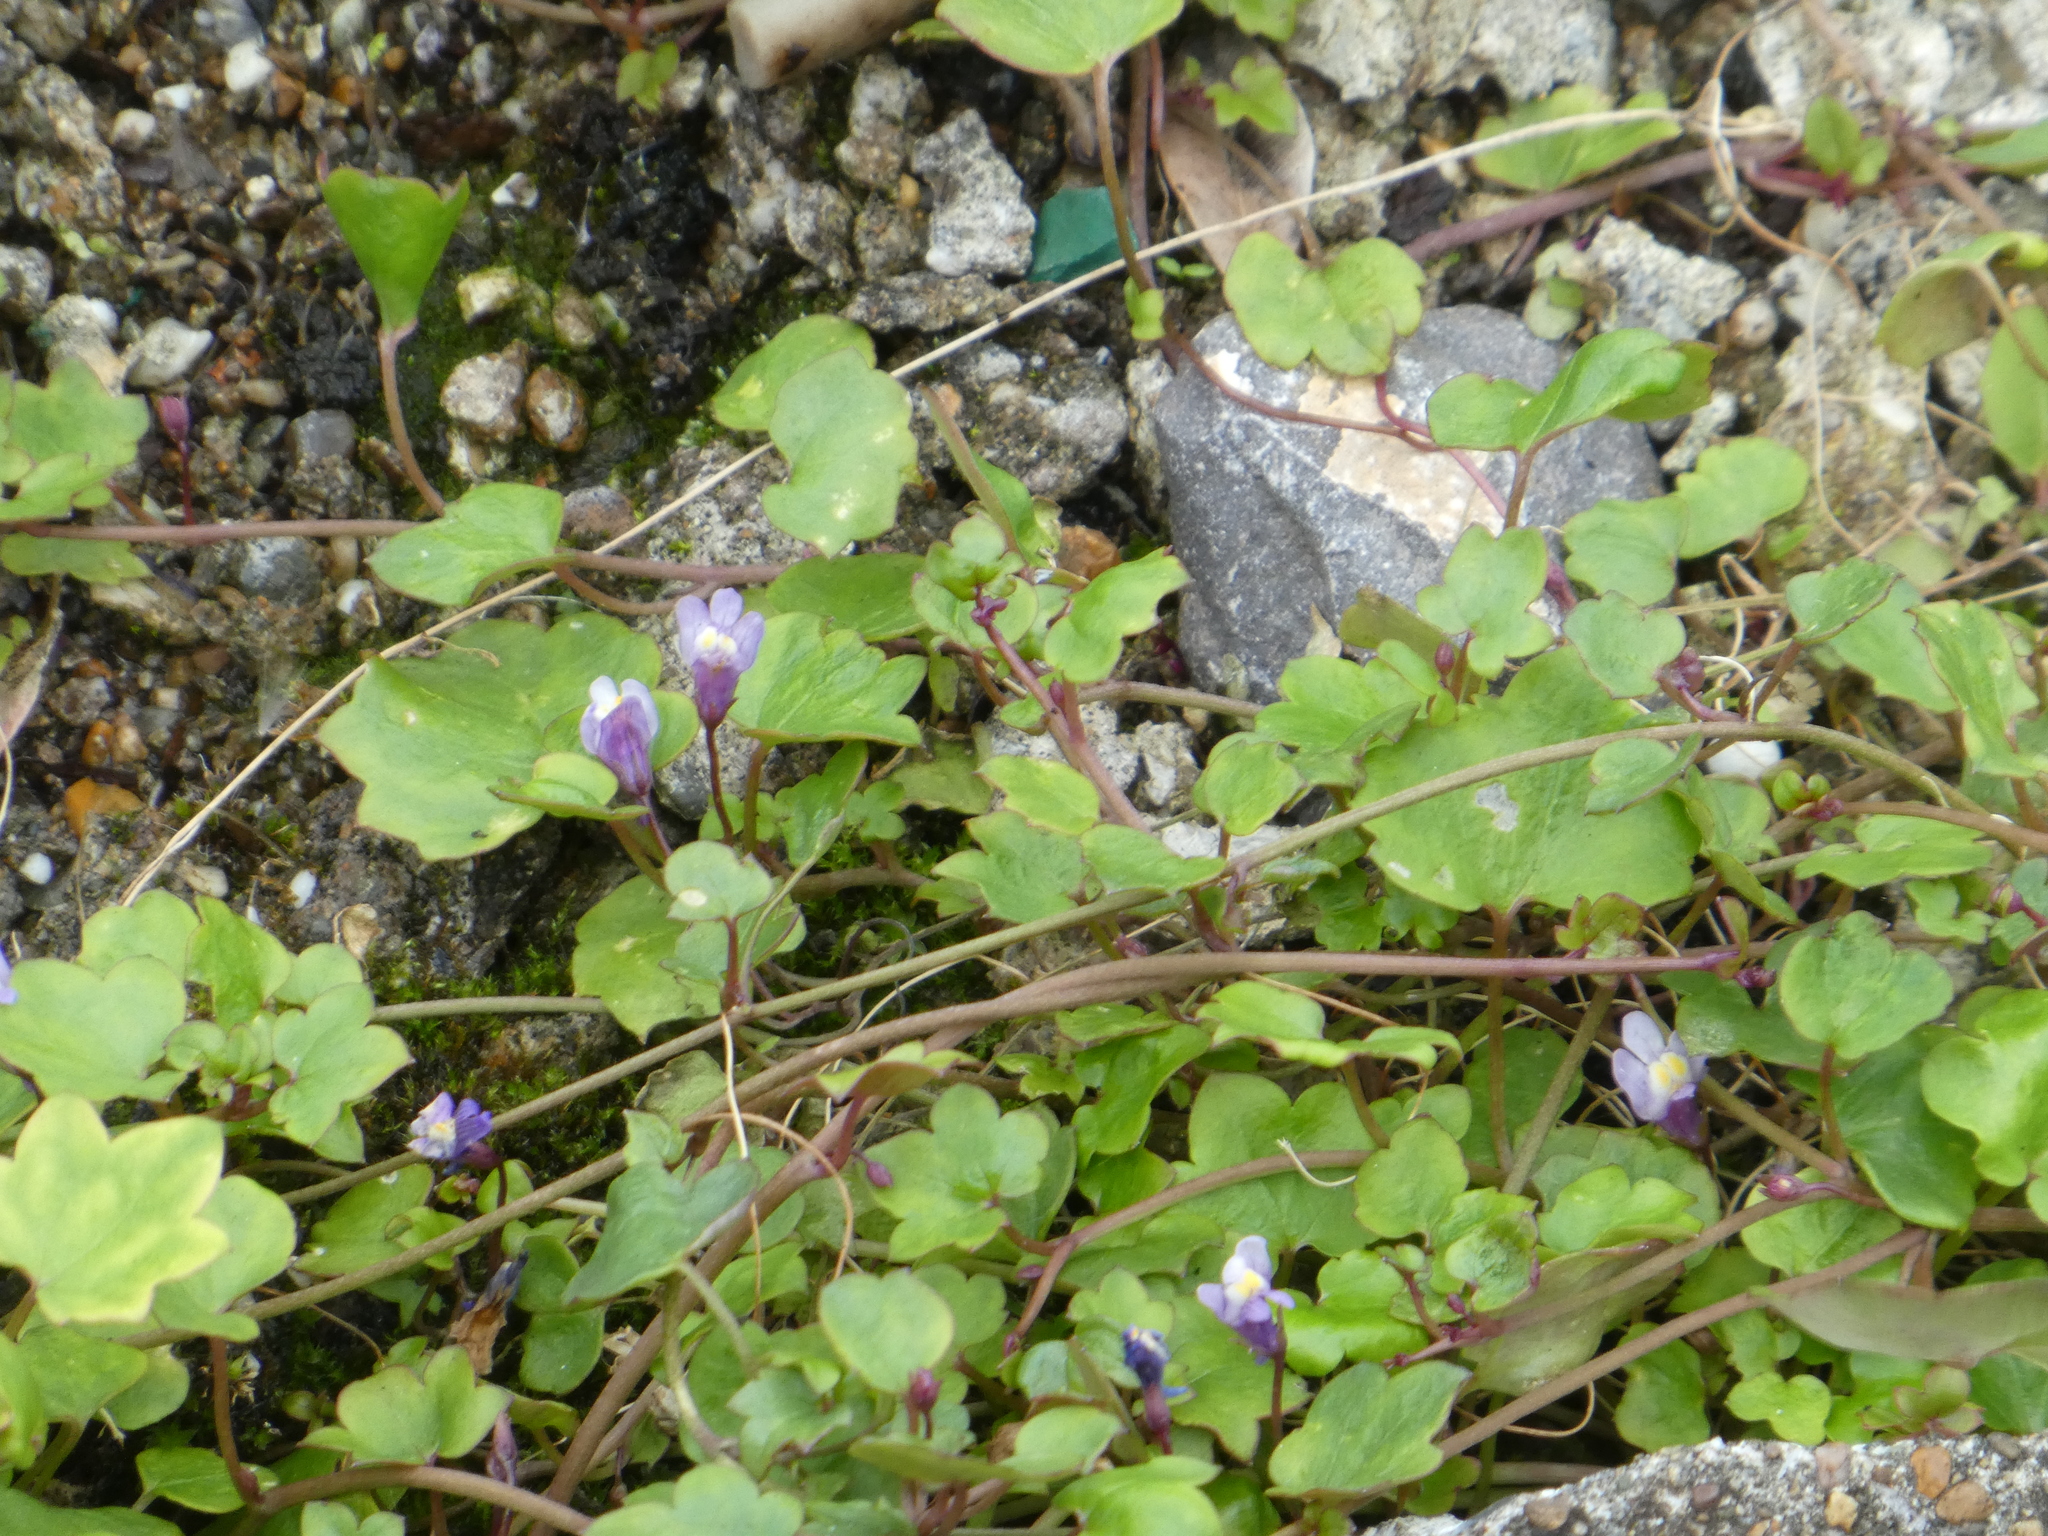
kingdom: Plantae
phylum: Tracheophyta
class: Magnoliopsida
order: Lamiales
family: Plantaginaceae
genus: Cymbalaria
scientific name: Cymbalaria muralis
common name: Ivy-leaved toadflax
